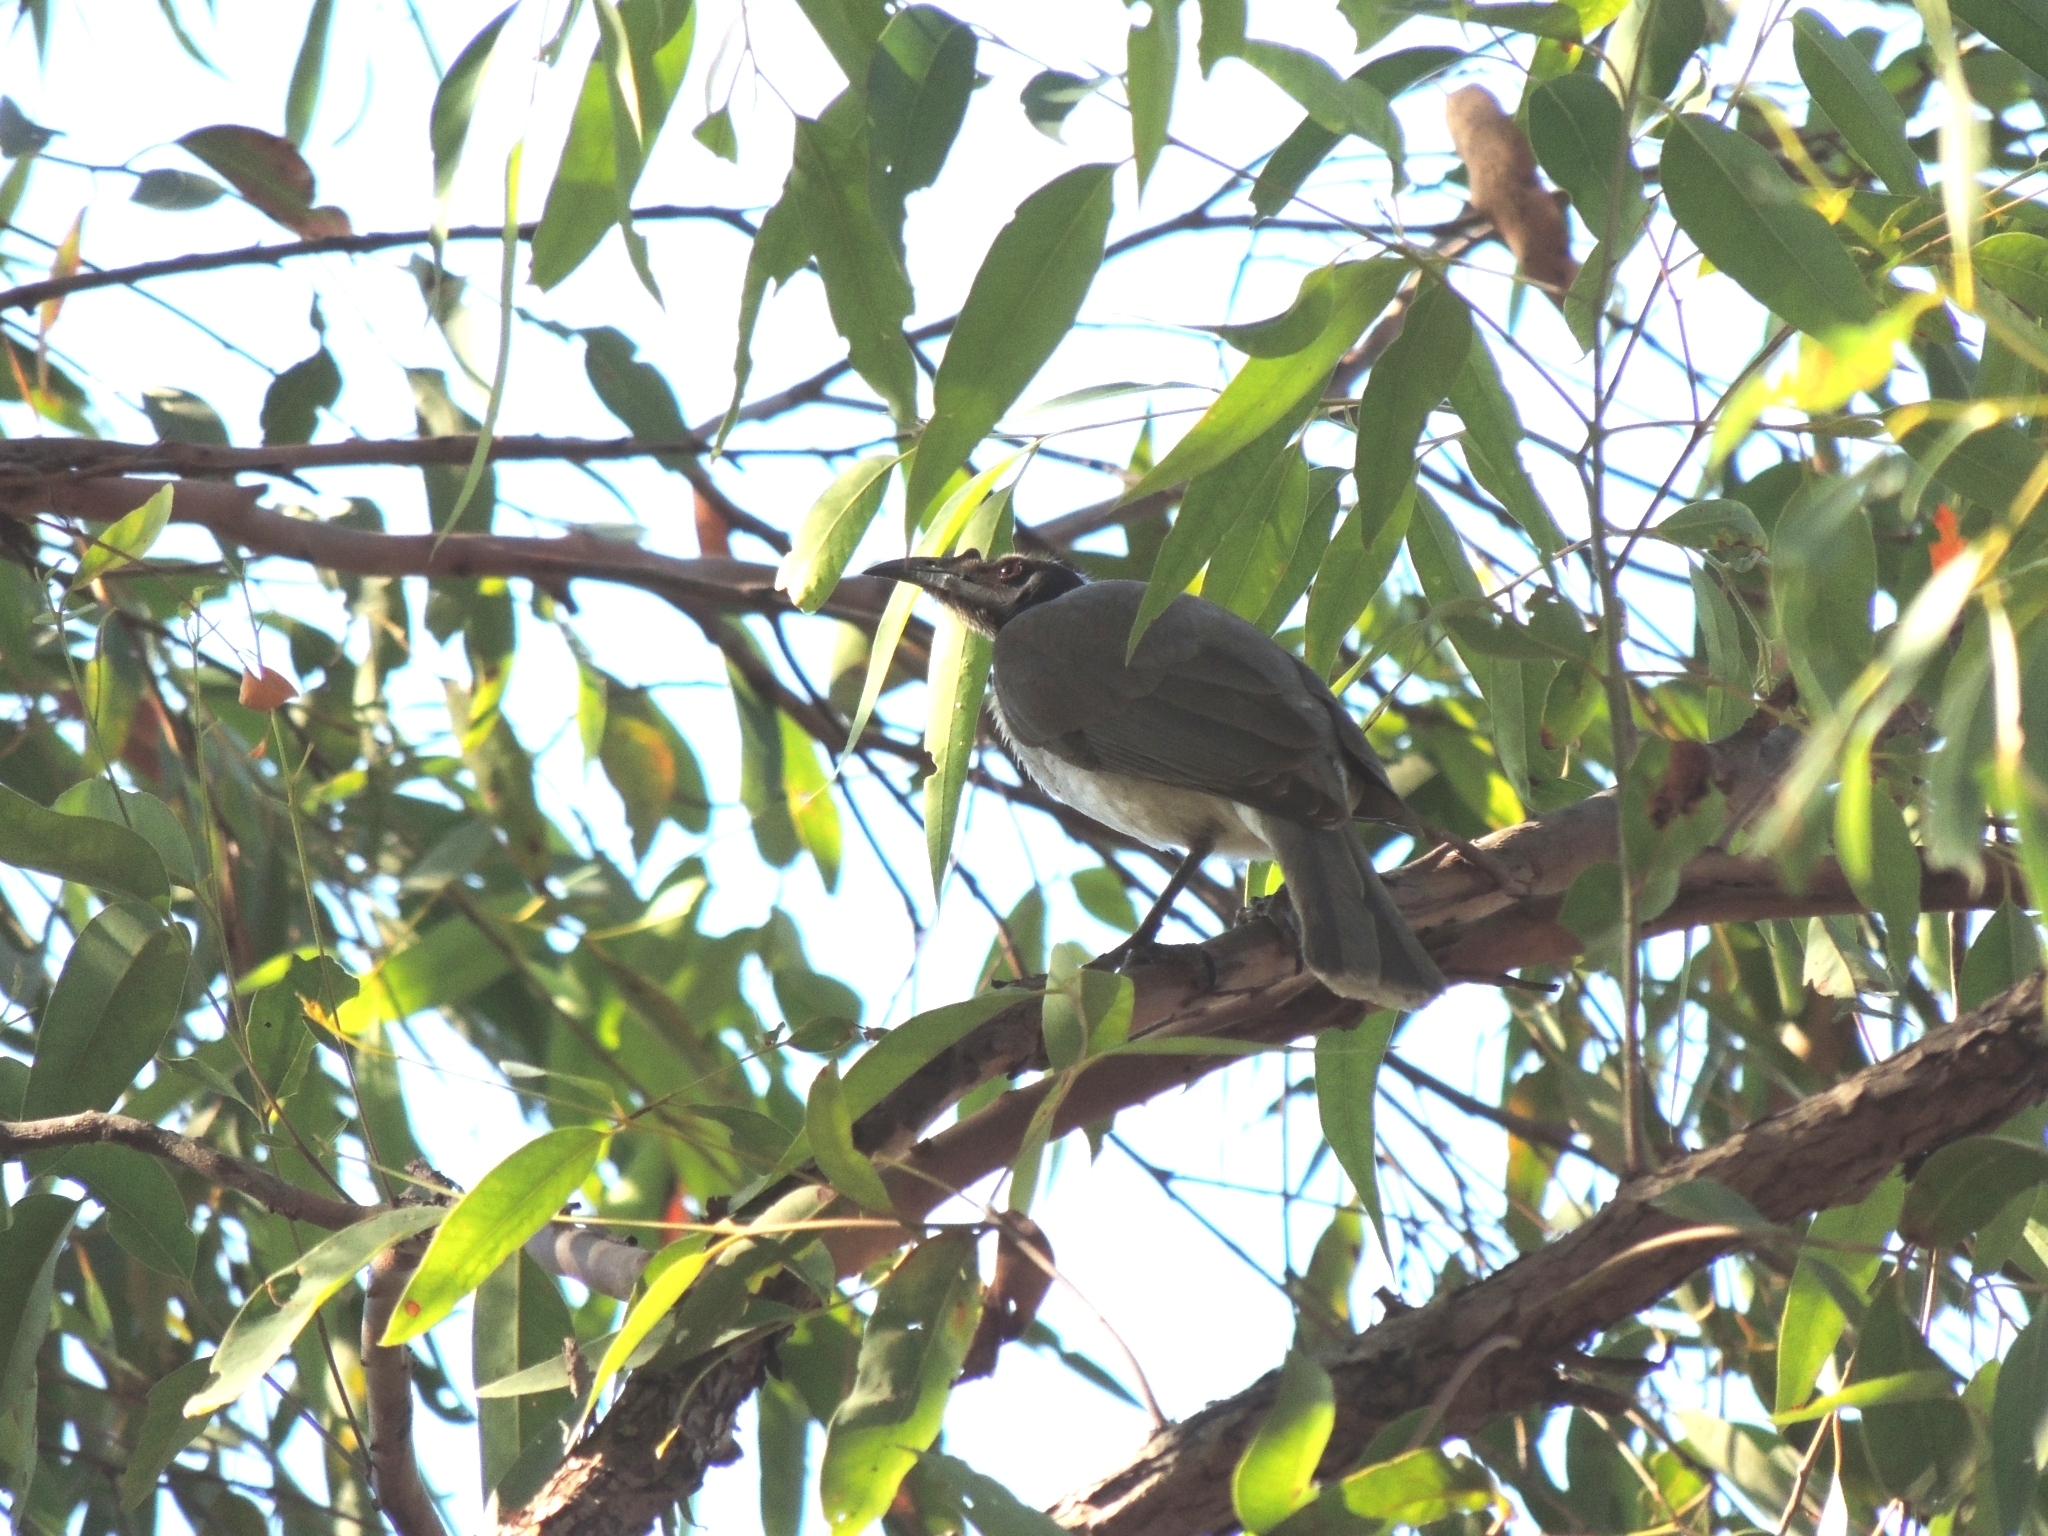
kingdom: Animalia
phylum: Chordata
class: Aves
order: Passeriformes
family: Meliphagidae
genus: Philemon
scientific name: Philemon corniculatus
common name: Noisy friarbird
